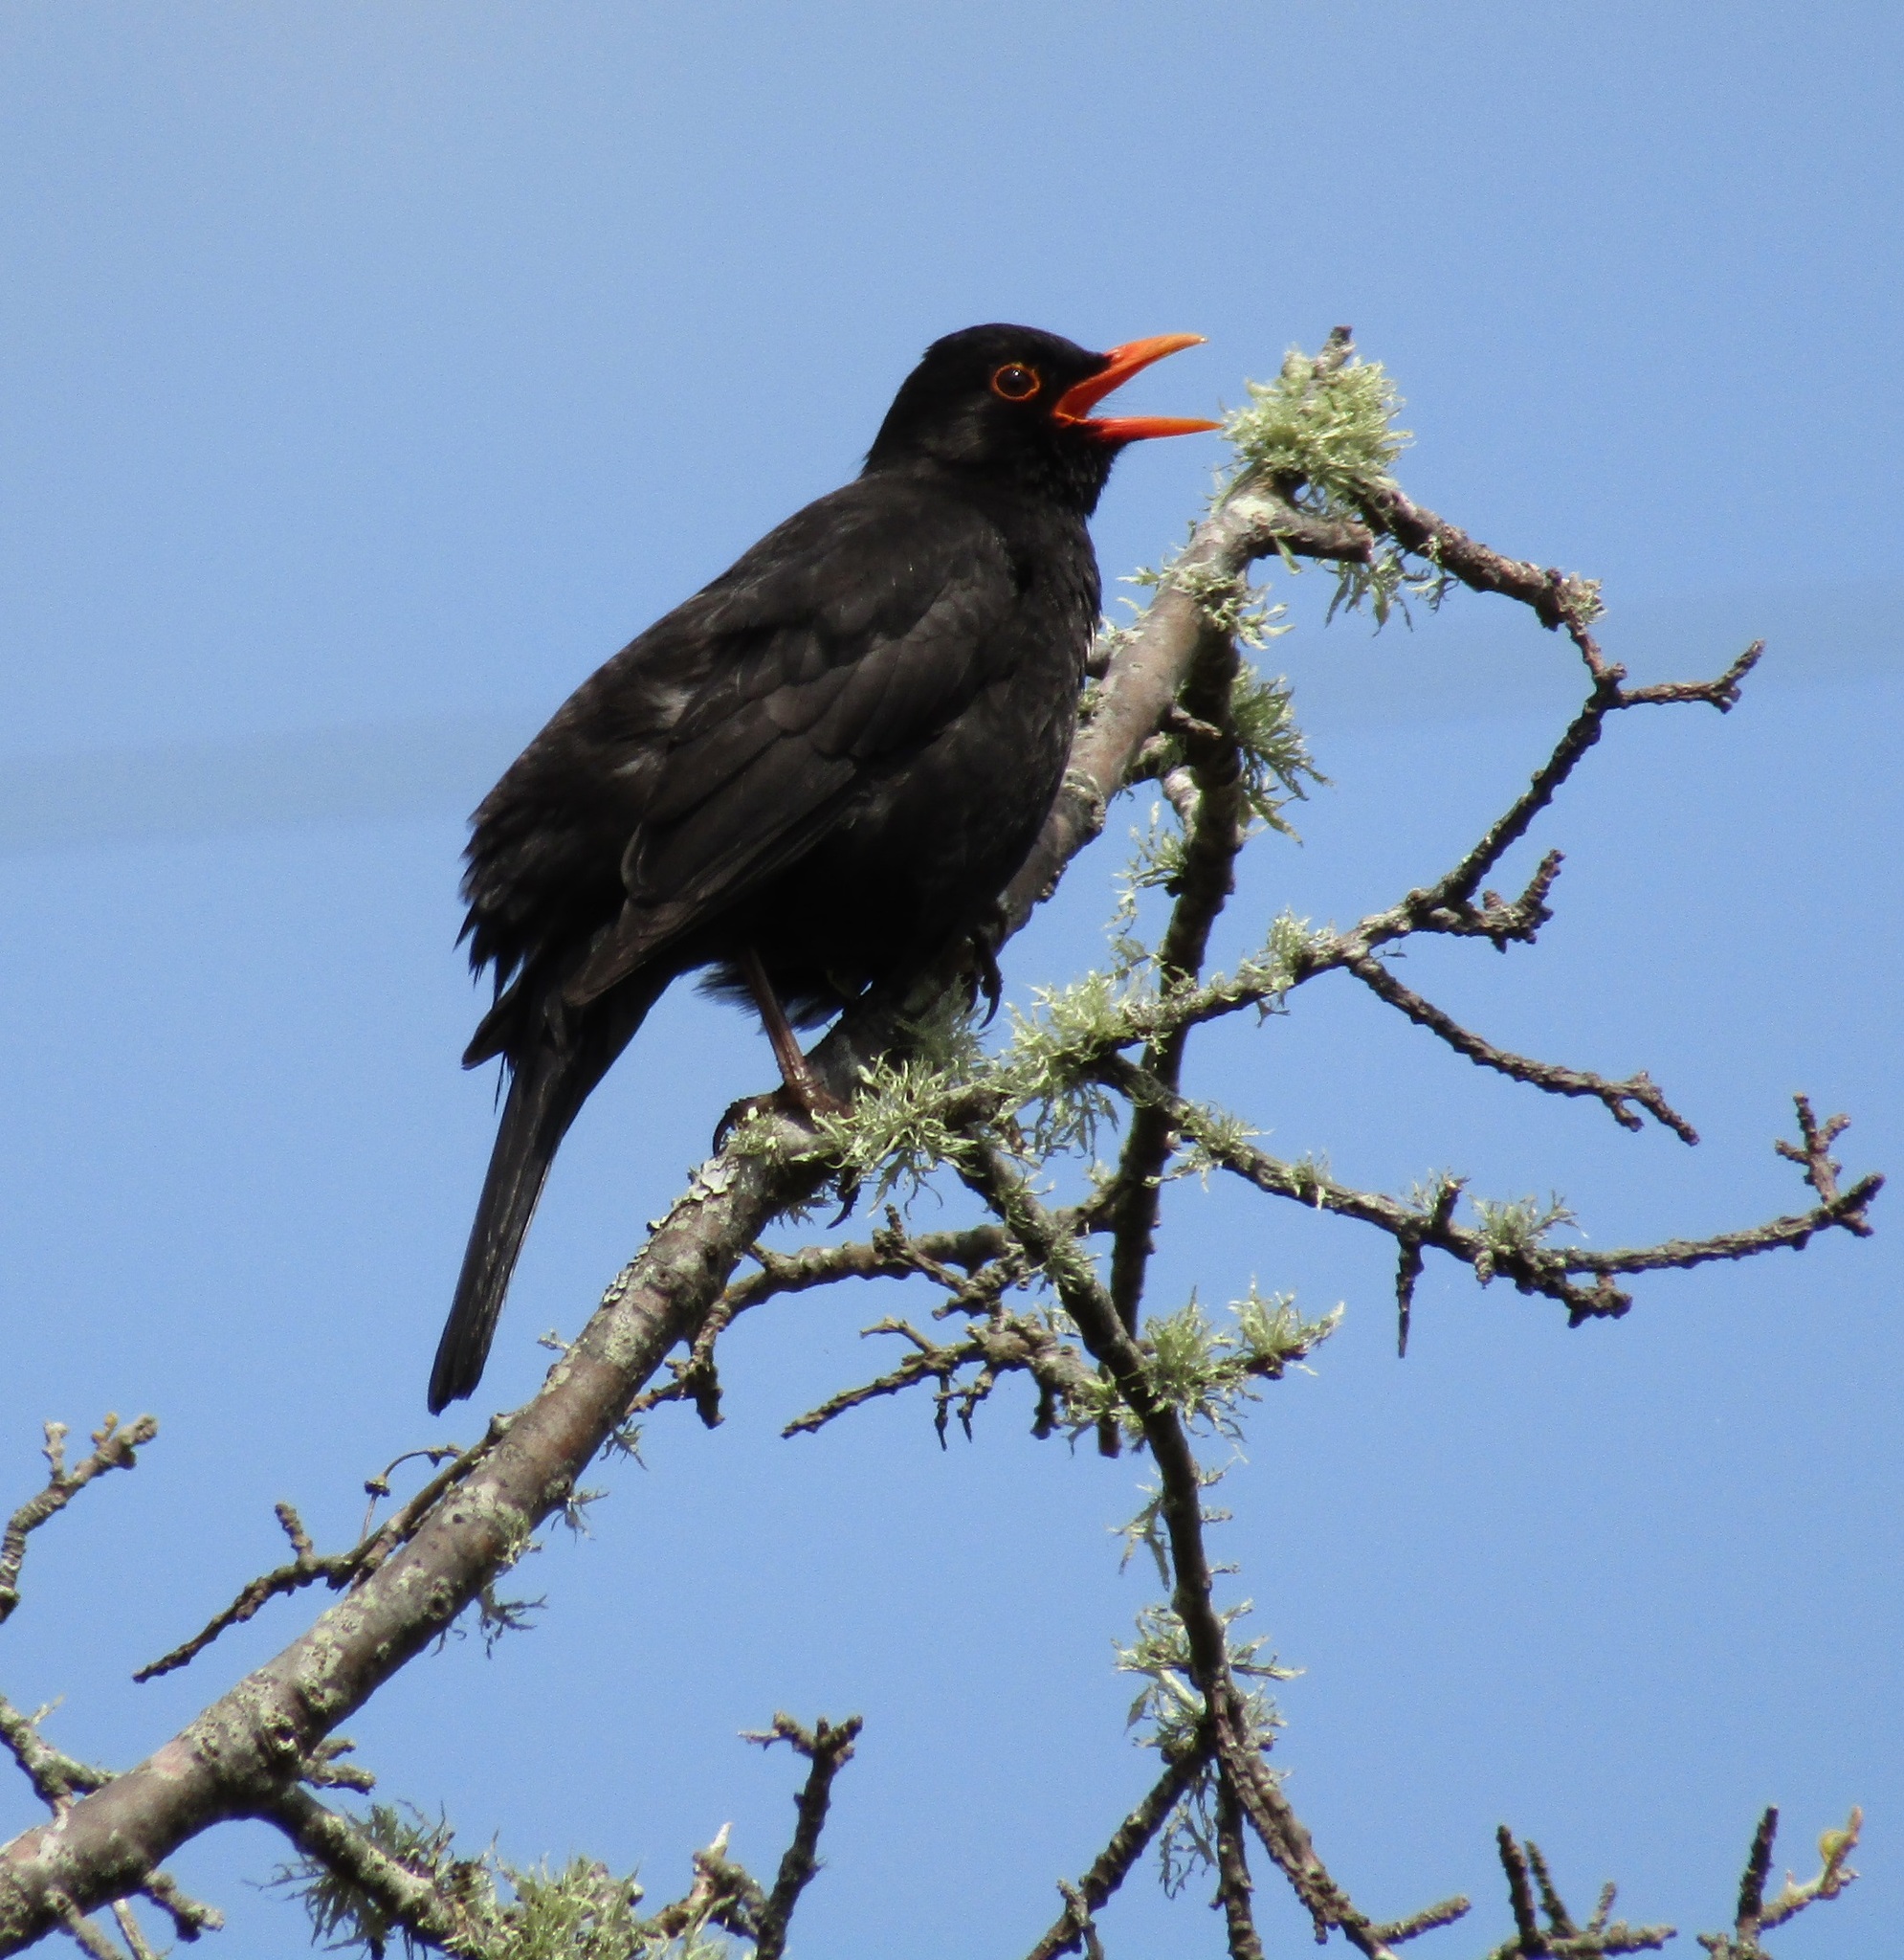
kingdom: Animalia
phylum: Chordata
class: Aves
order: Passeriformes
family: Turdidae
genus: Turdus
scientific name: Turdus merula
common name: Common blackbird
